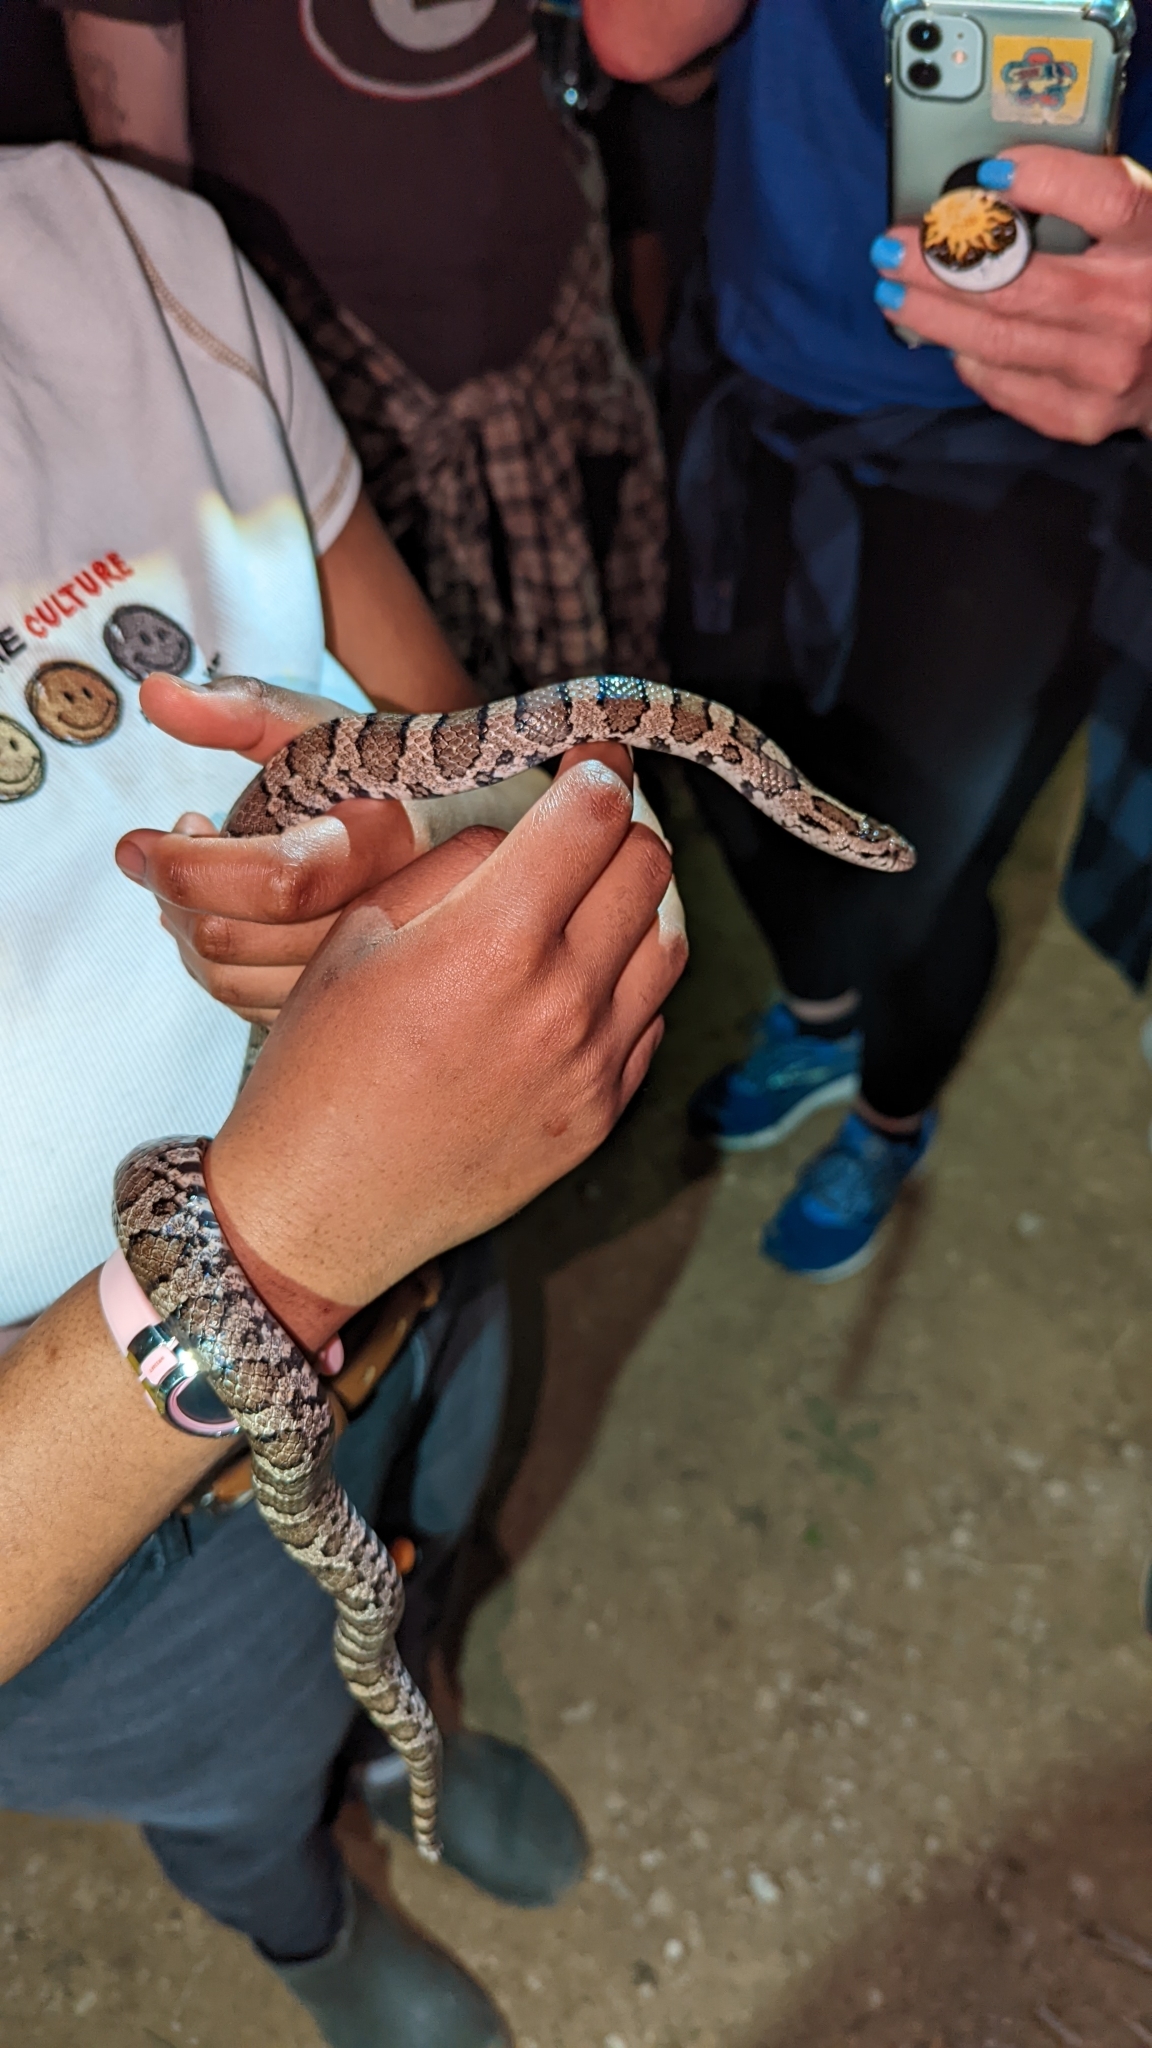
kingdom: Animalia
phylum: Chordata
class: Squamata
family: Colubridae
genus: Lampropeltis
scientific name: Lampropeltis triangulum
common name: Eastern milksnake
